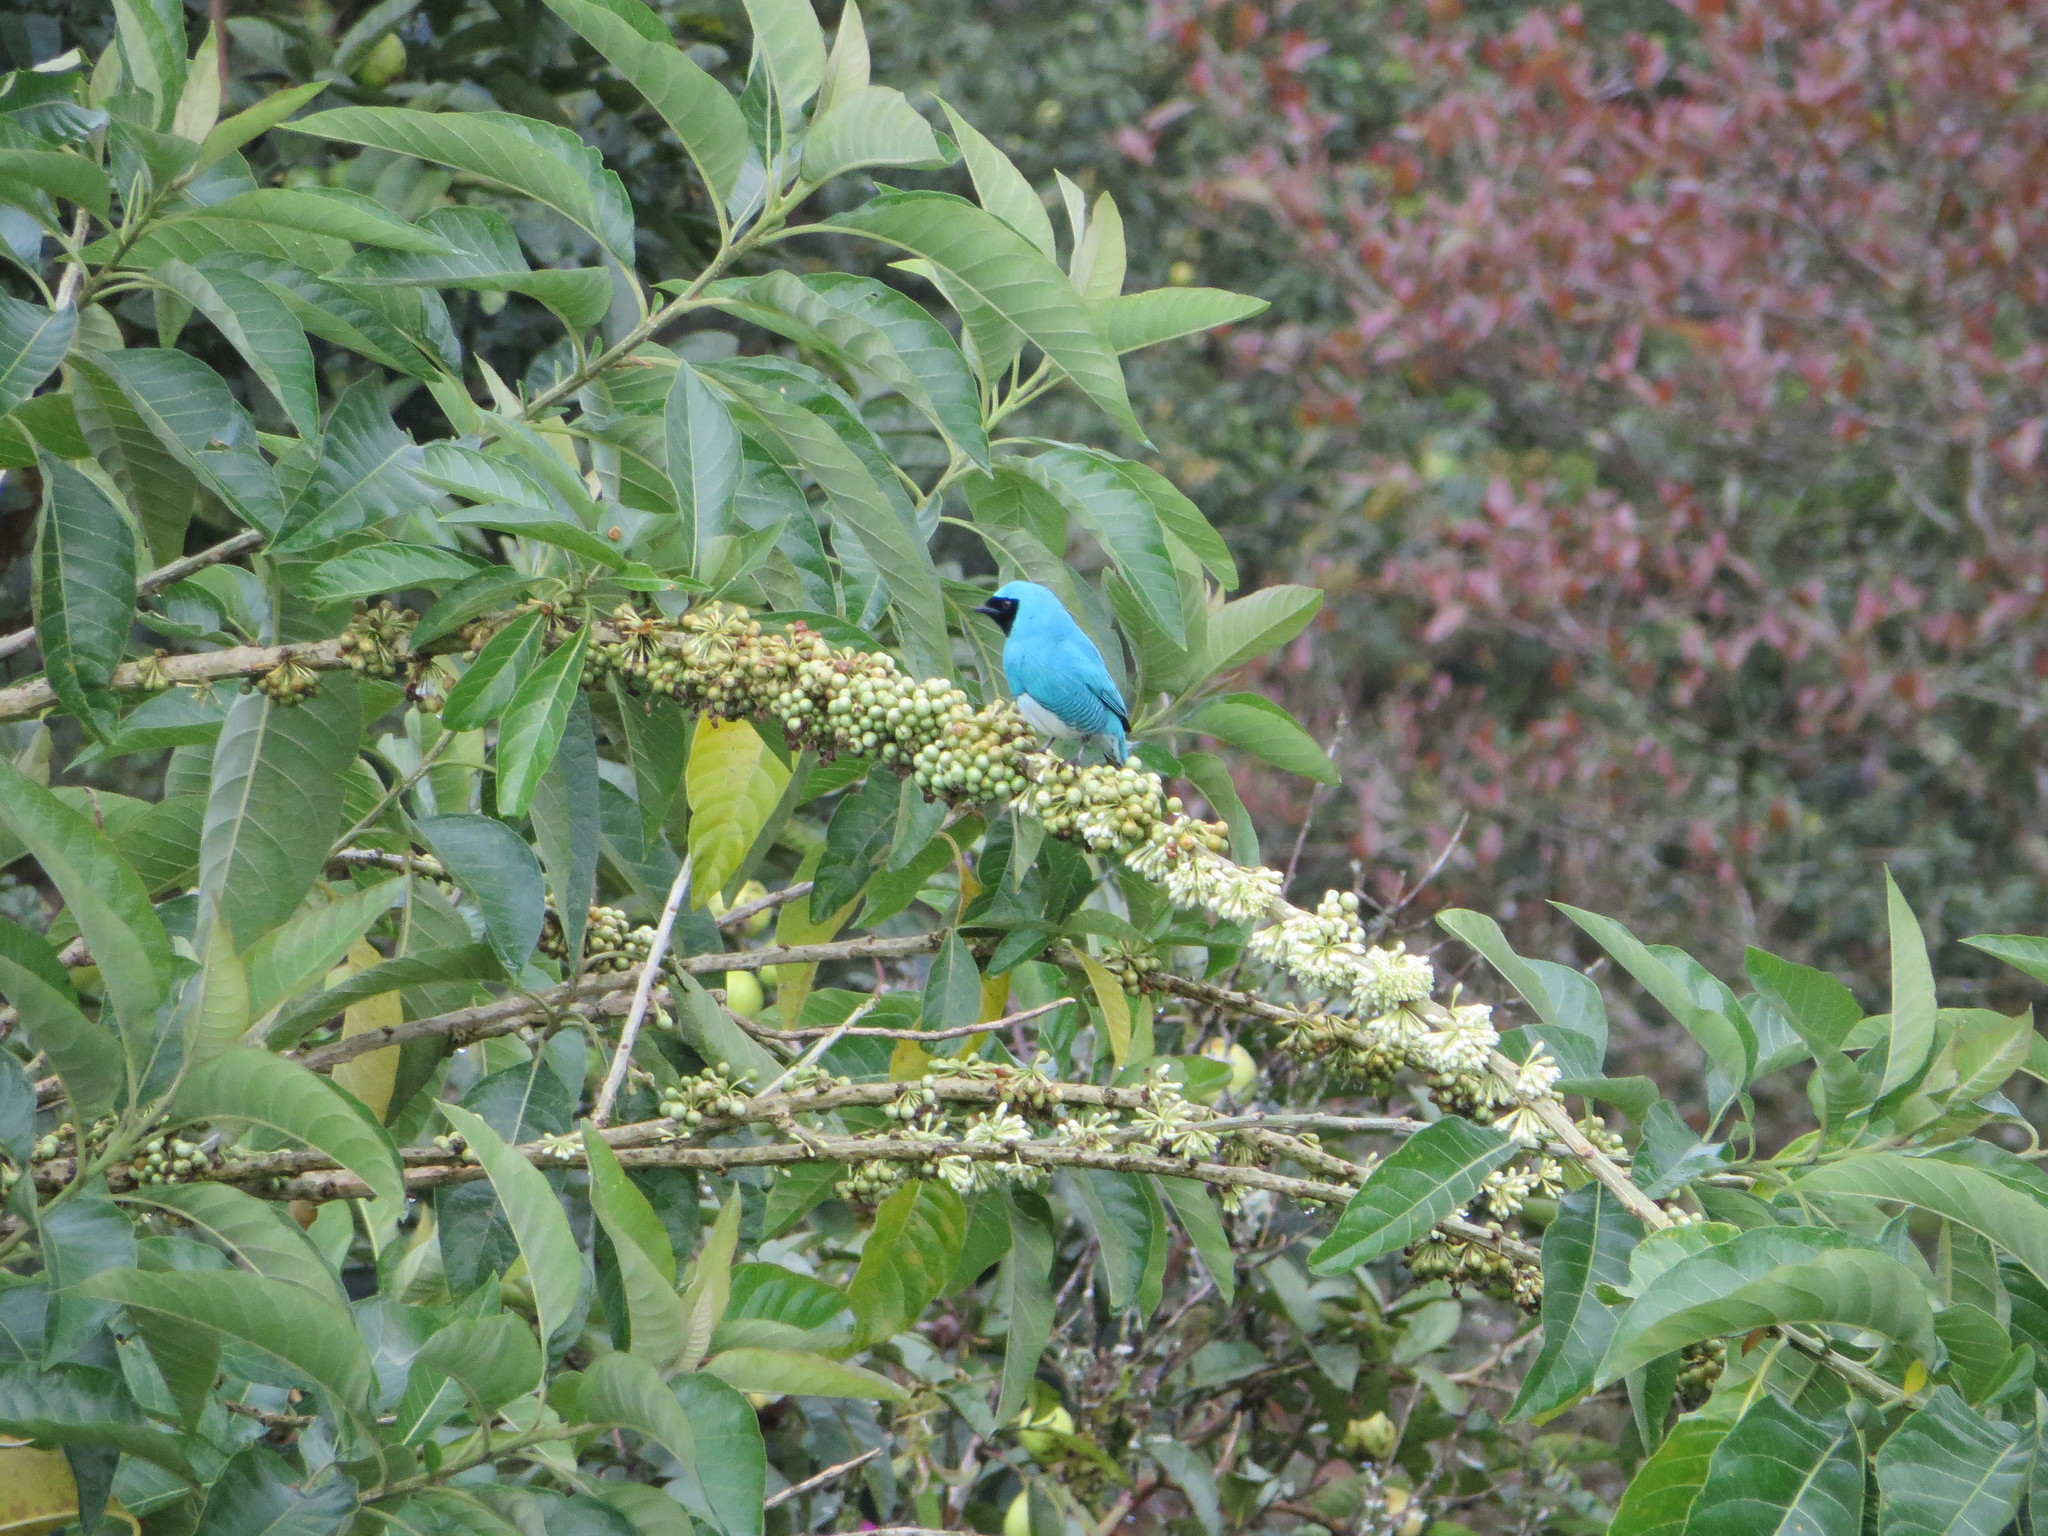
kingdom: Animalia
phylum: Chordata
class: Aves
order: Passeriformes
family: Thraupidae
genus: Tersina
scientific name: Tersina viridis
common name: Swallow tanager
